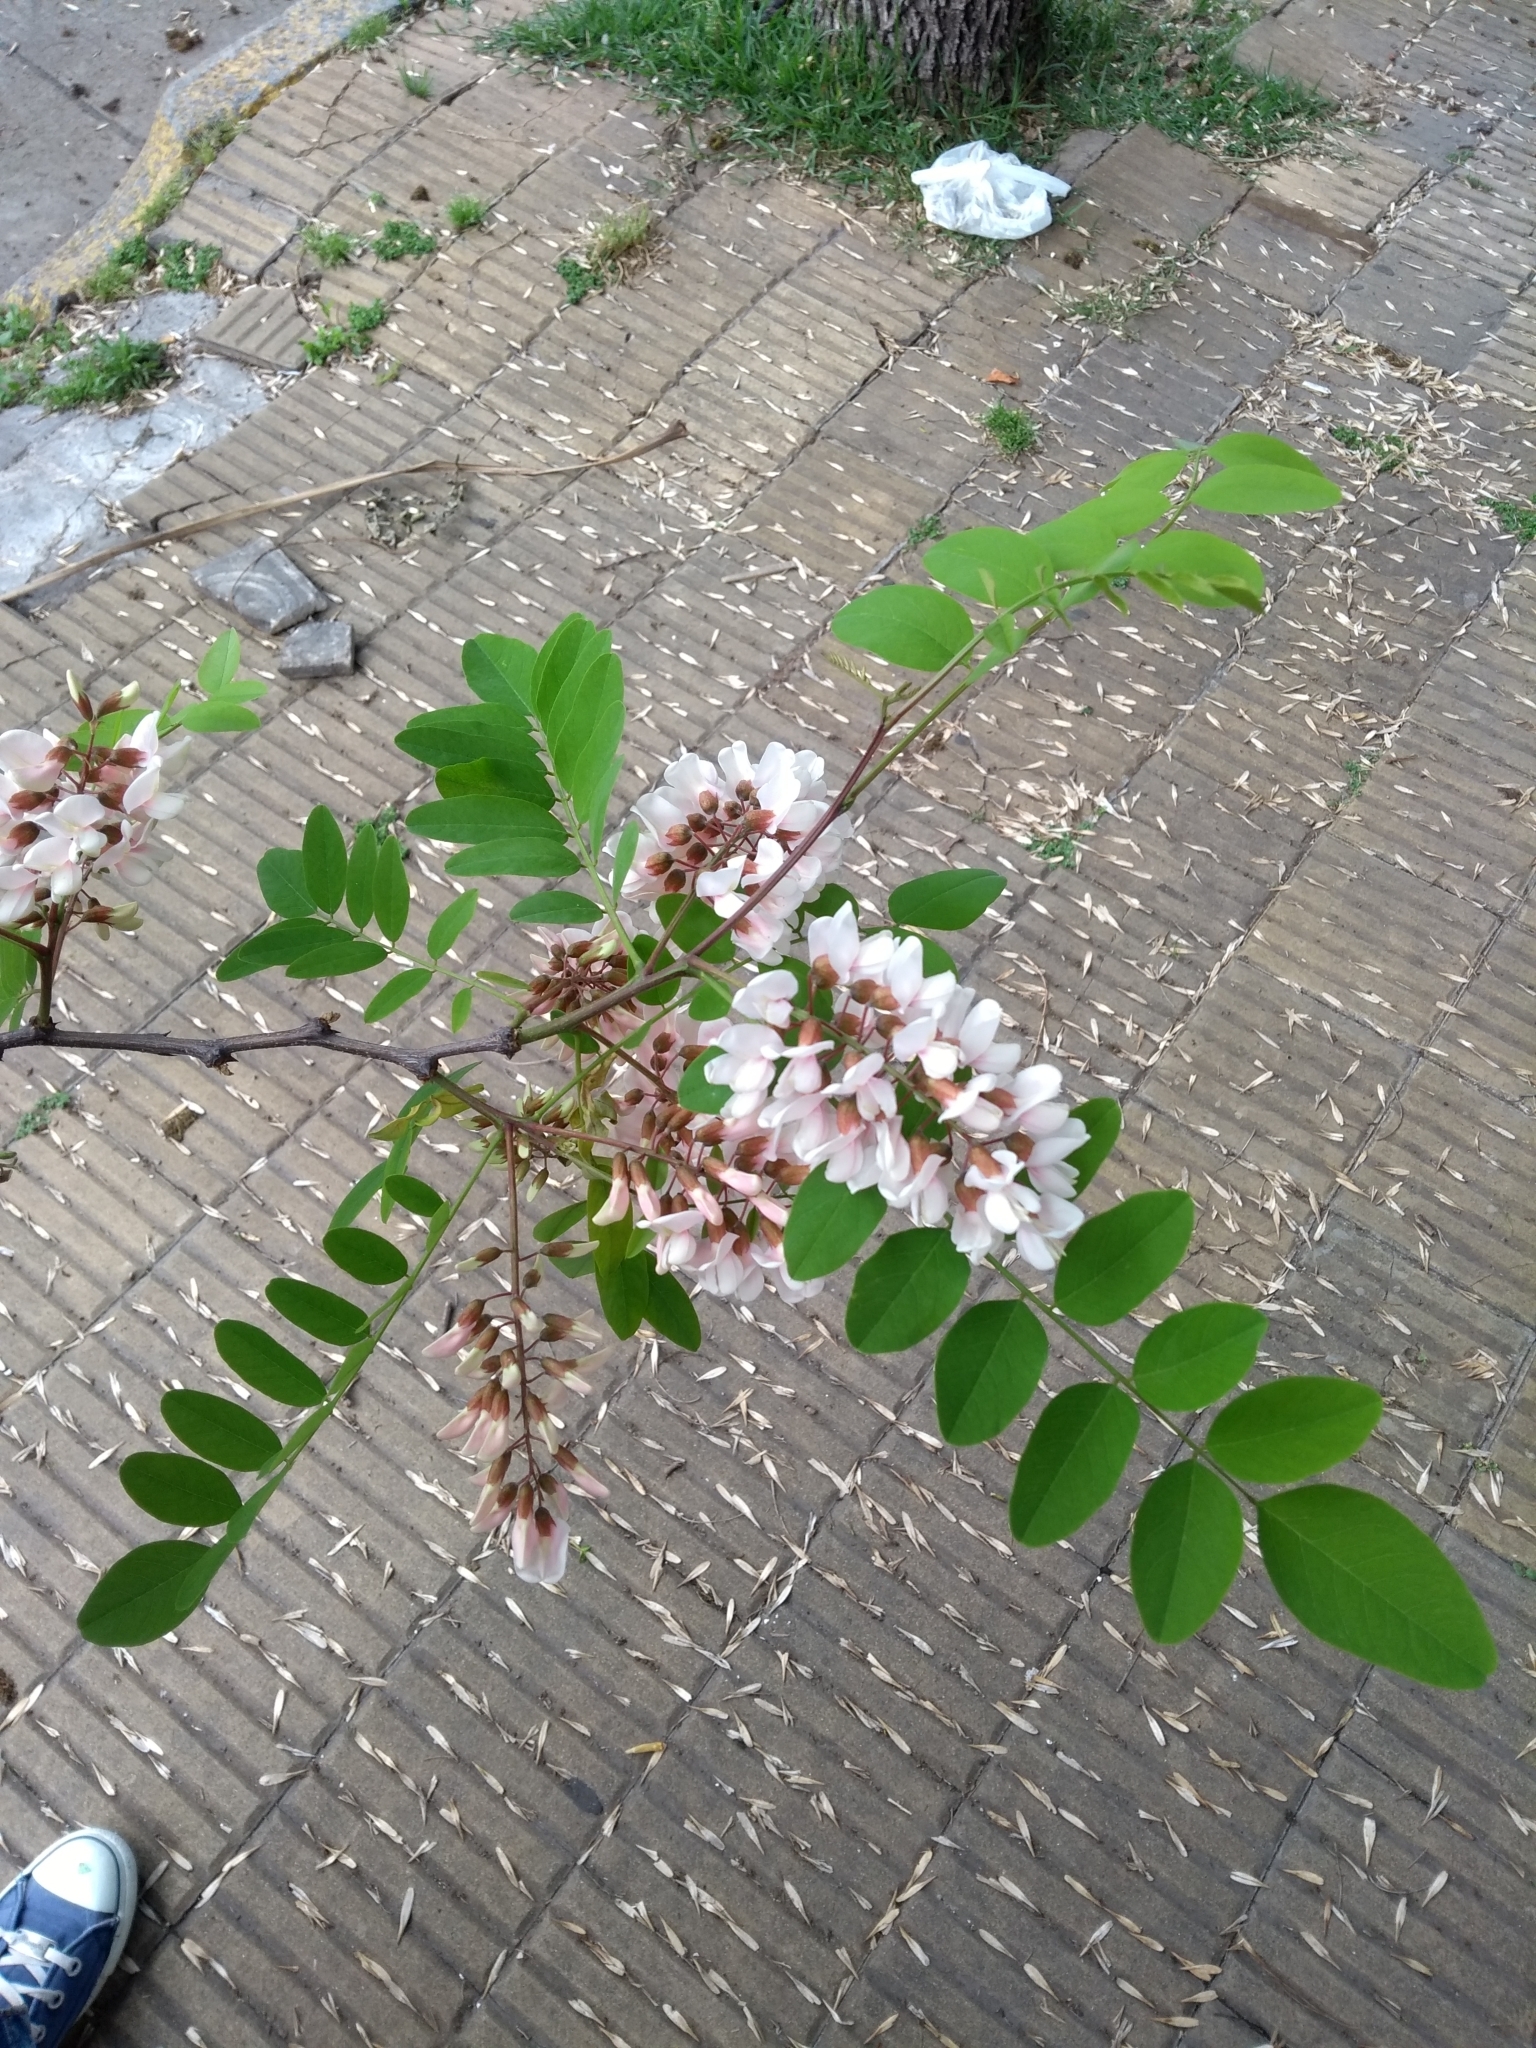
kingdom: Plantae
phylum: Tracheophyta
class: Magnoliopsida
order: Fabales
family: Fabaceae
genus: Robinia
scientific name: Robinia pseudoacacia
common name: Black locust
